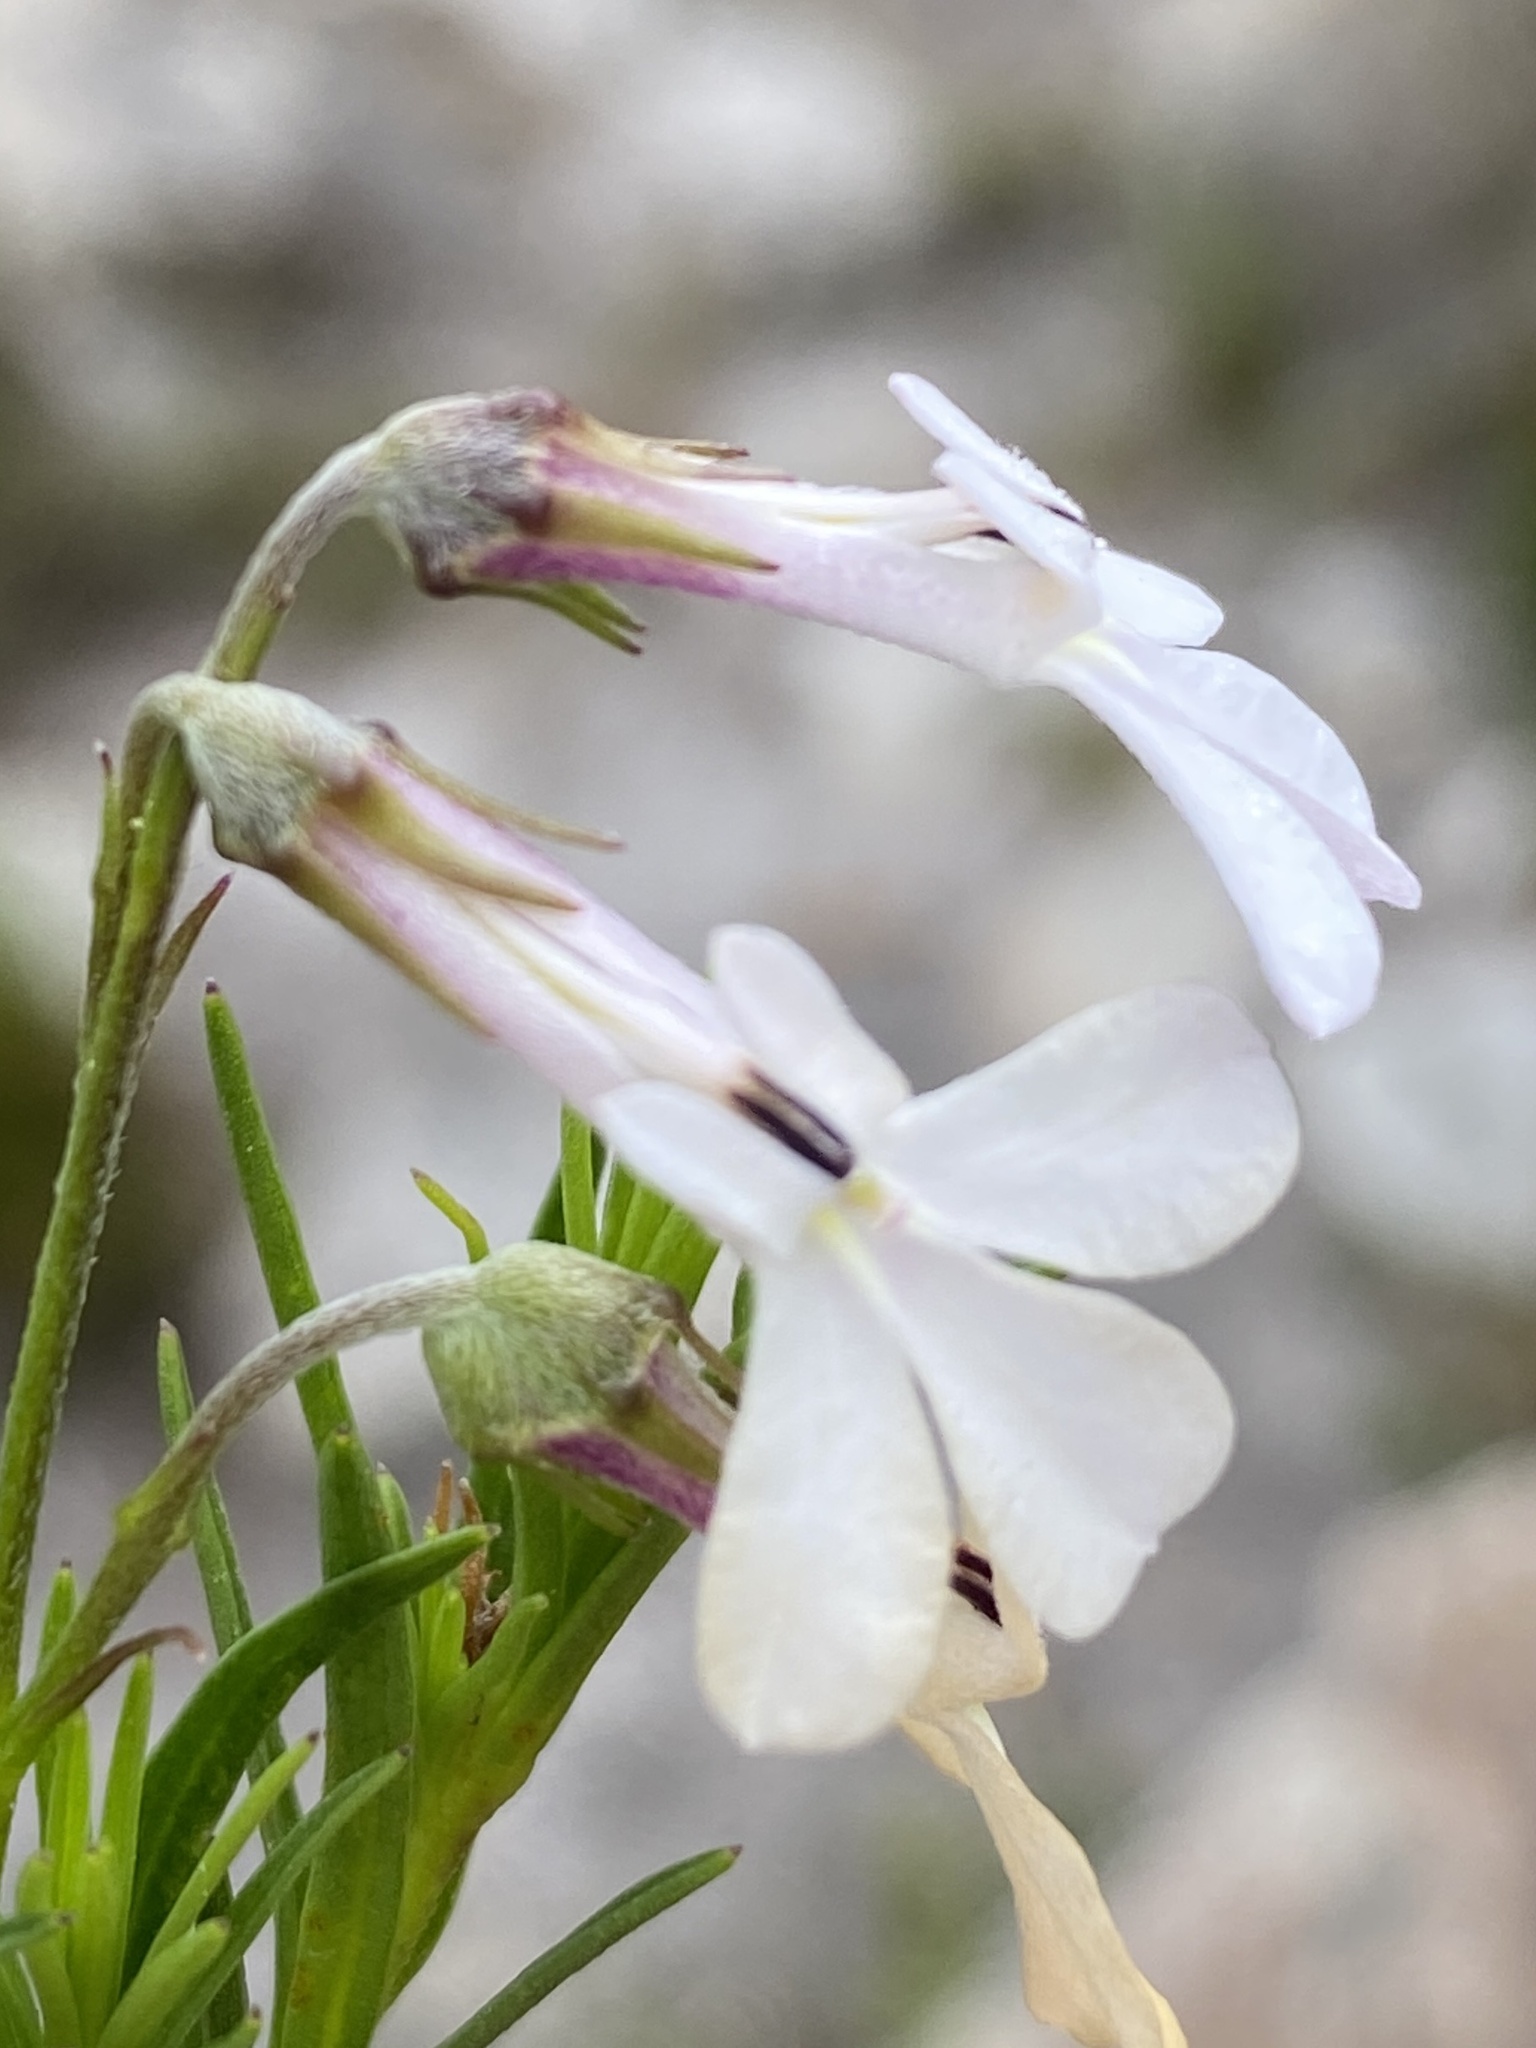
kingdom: Plantae
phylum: Tracheophyta
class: Magnoliopsida
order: Asterales
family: Campanulaceae
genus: Lobelia
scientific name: Lobelia pinifolia
